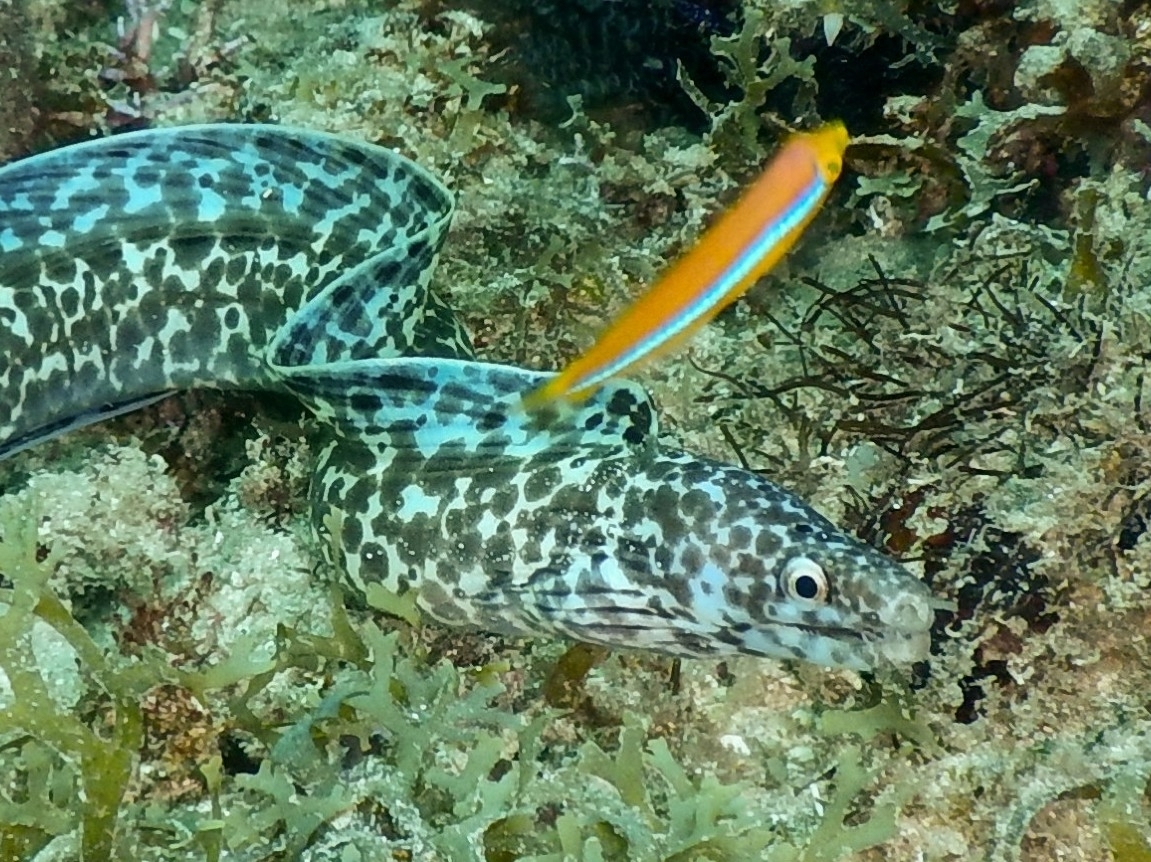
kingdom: Animalia
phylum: Chordata
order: Perciformes
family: Labridae
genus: Halichoeres
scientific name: Halichoeres garnoti
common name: Yellowhead wrasse
